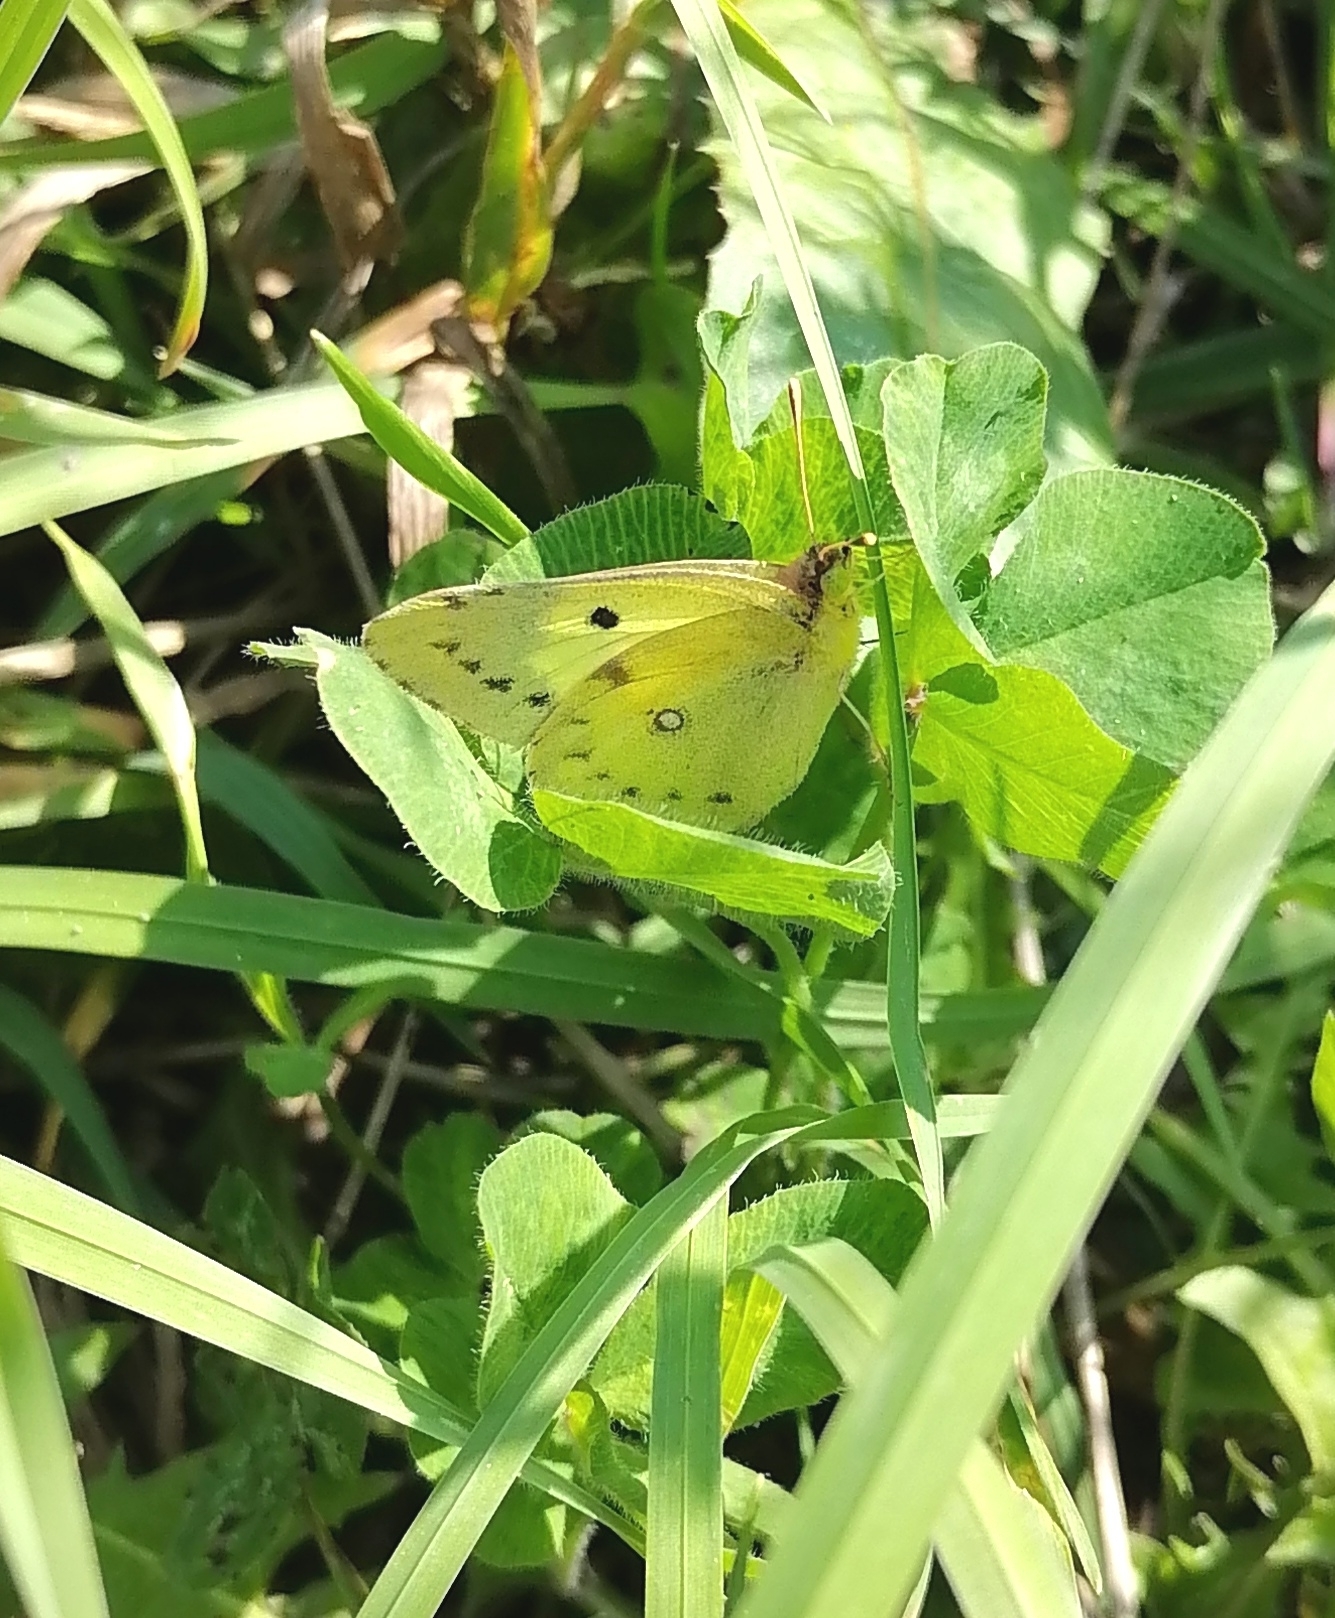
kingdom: Animalia
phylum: Arthropoda
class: Insecta
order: Lepidoptera
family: Pieridae
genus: Colias
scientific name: Colias hyale
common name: Pale clouded yellow
